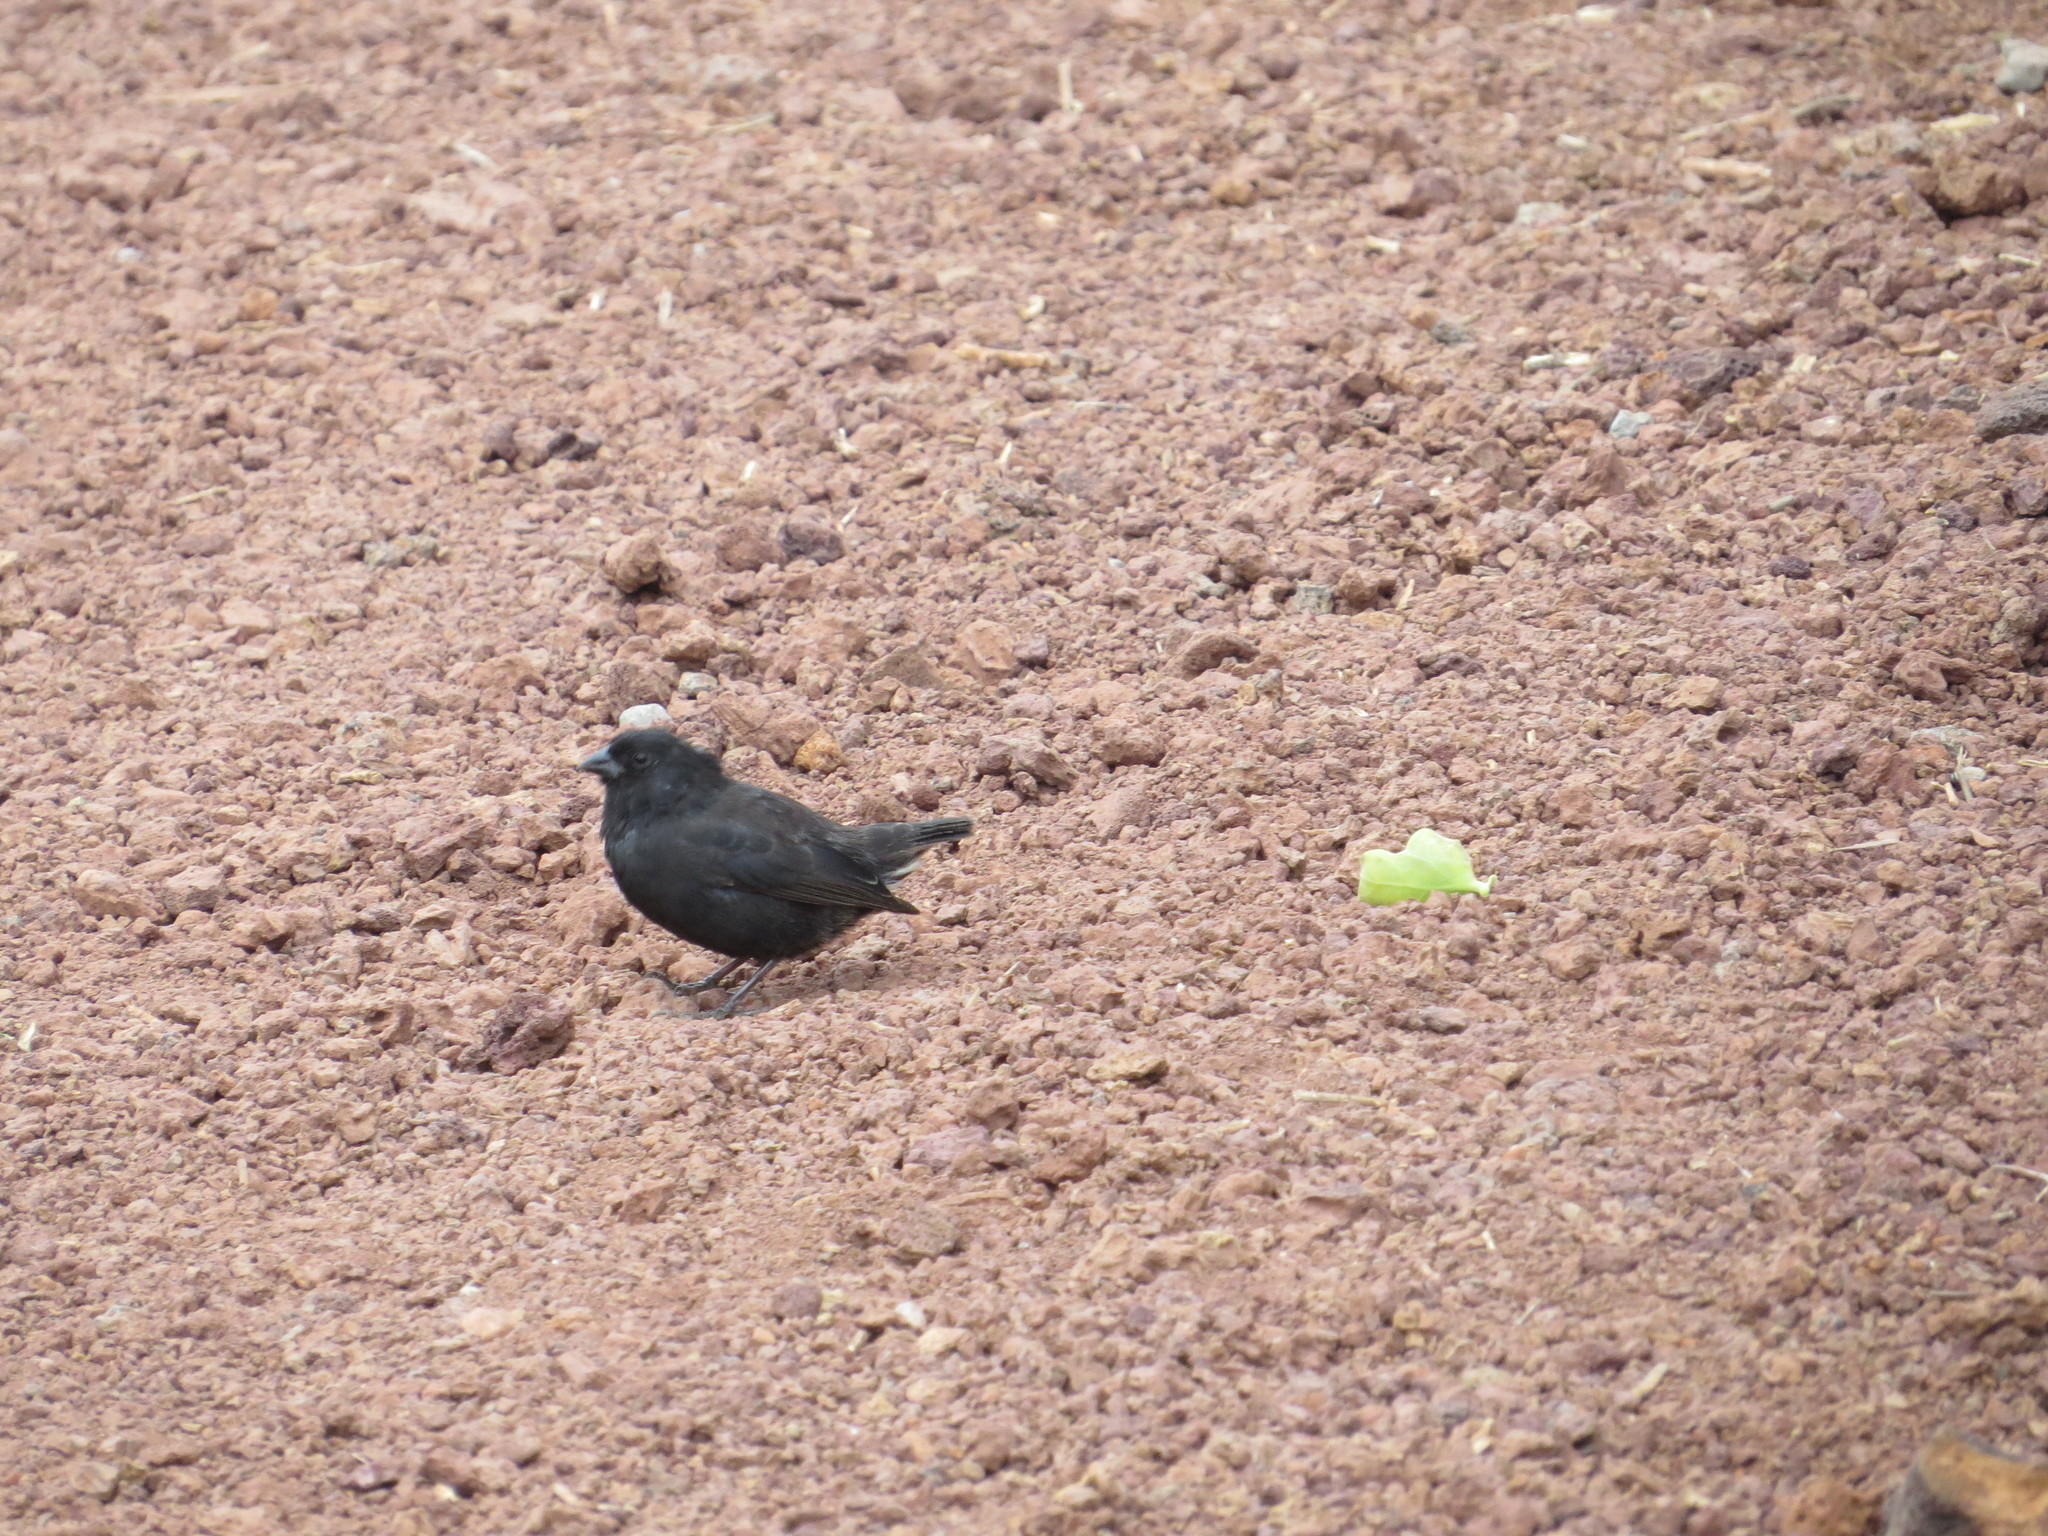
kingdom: Animalia
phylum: Chordata
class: Aves
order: Passeriformes
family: Thraupidae
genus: Geospiza
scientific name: Geospiza fuliginosa
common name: Small ground finch
